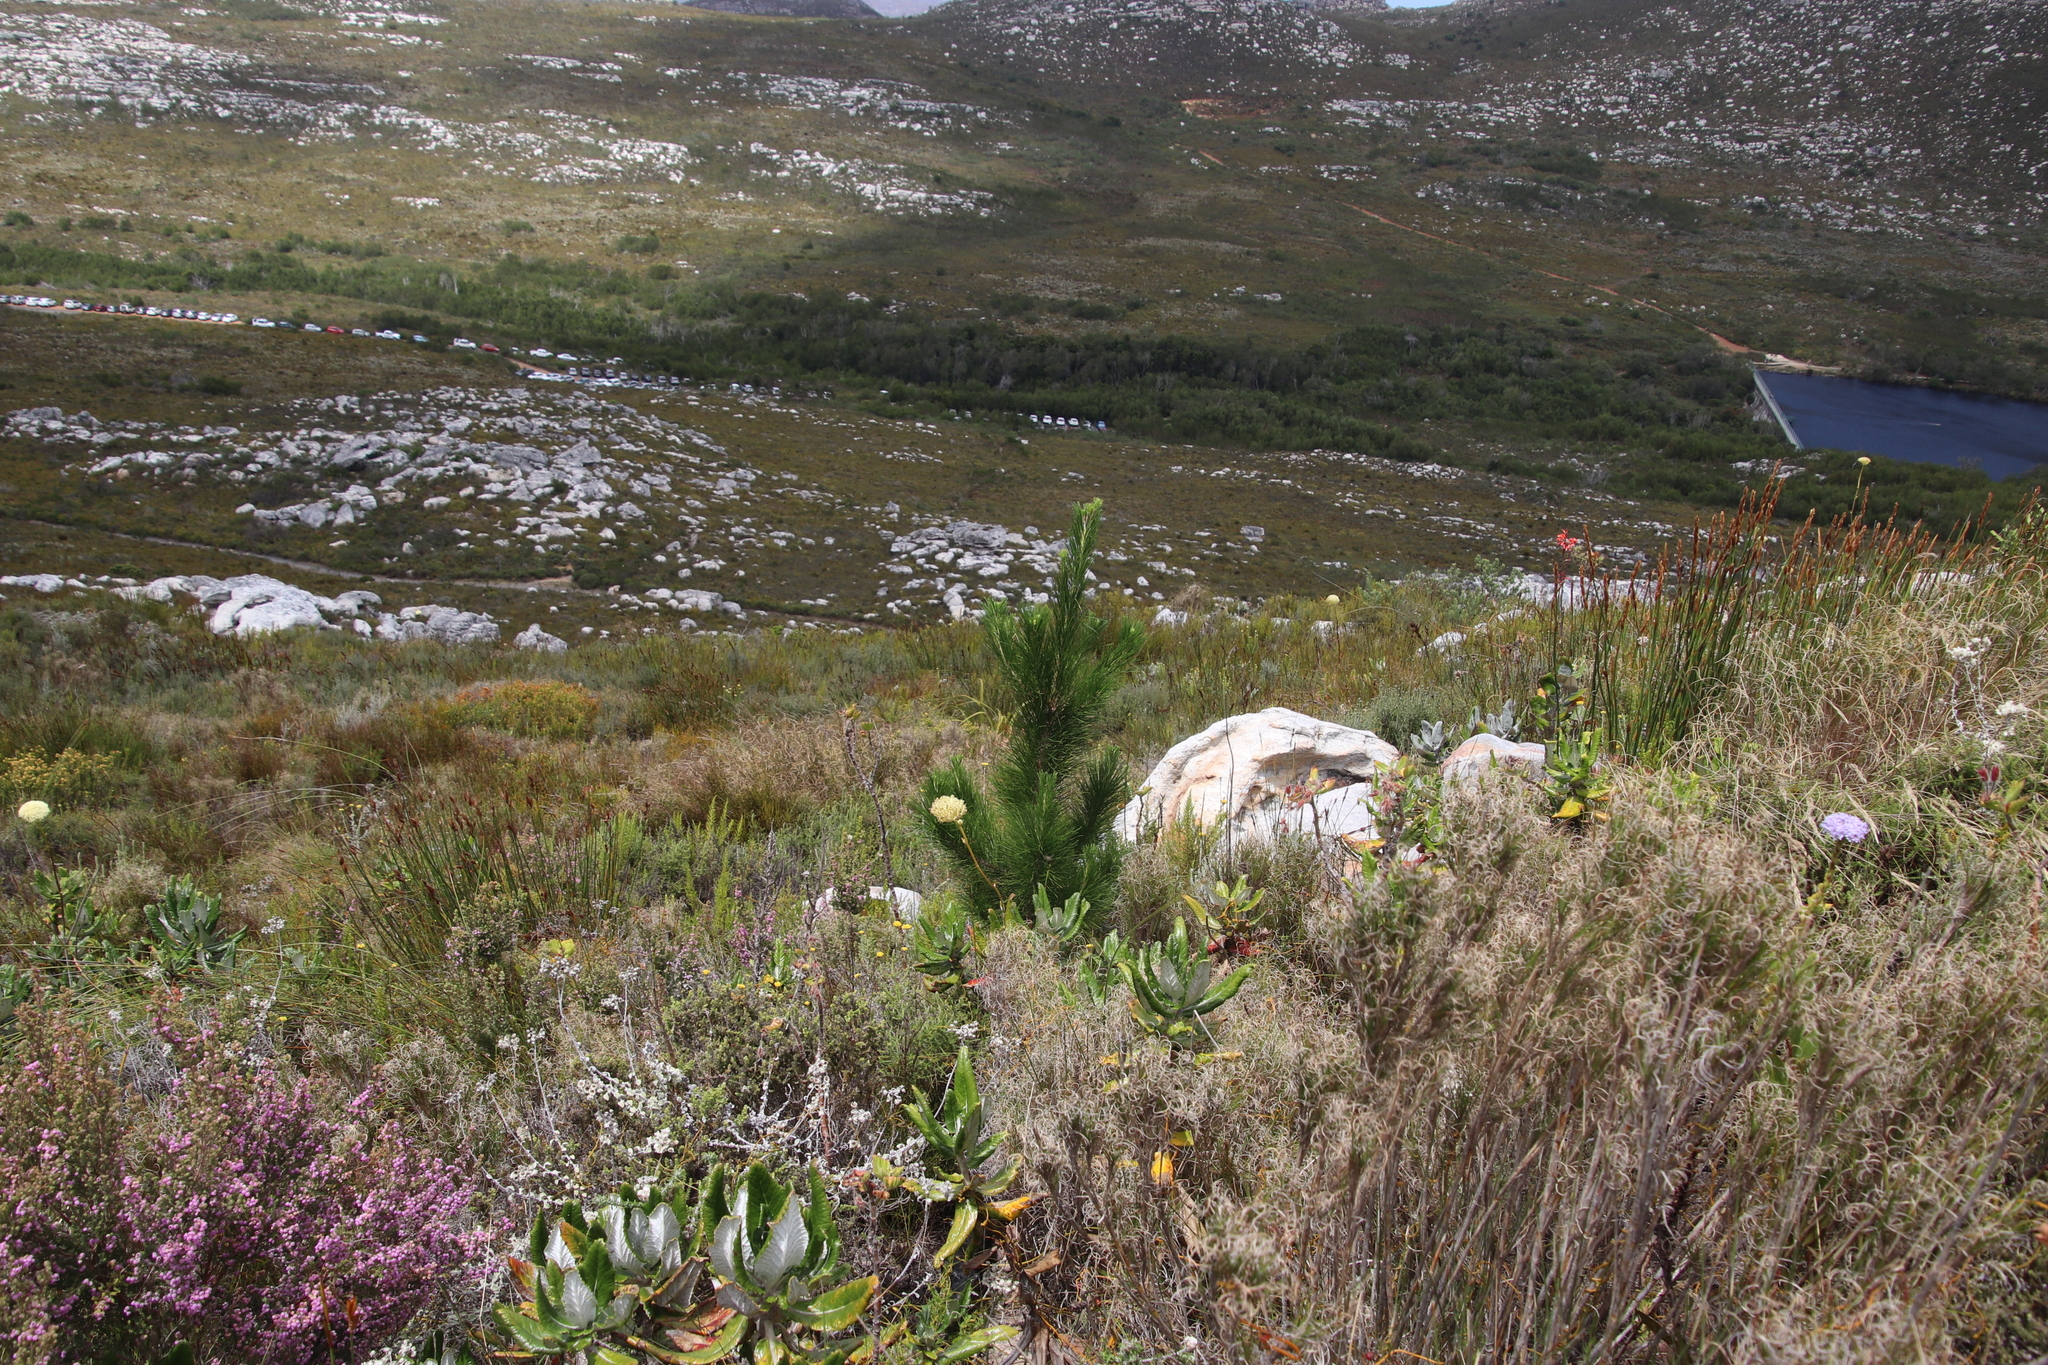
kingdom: Plantae
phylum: Tracheophyta
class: Pinopsida
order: Pinales
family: Pinaceae
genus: Pinus
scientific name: Pinus radiata
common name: Monterey pine
